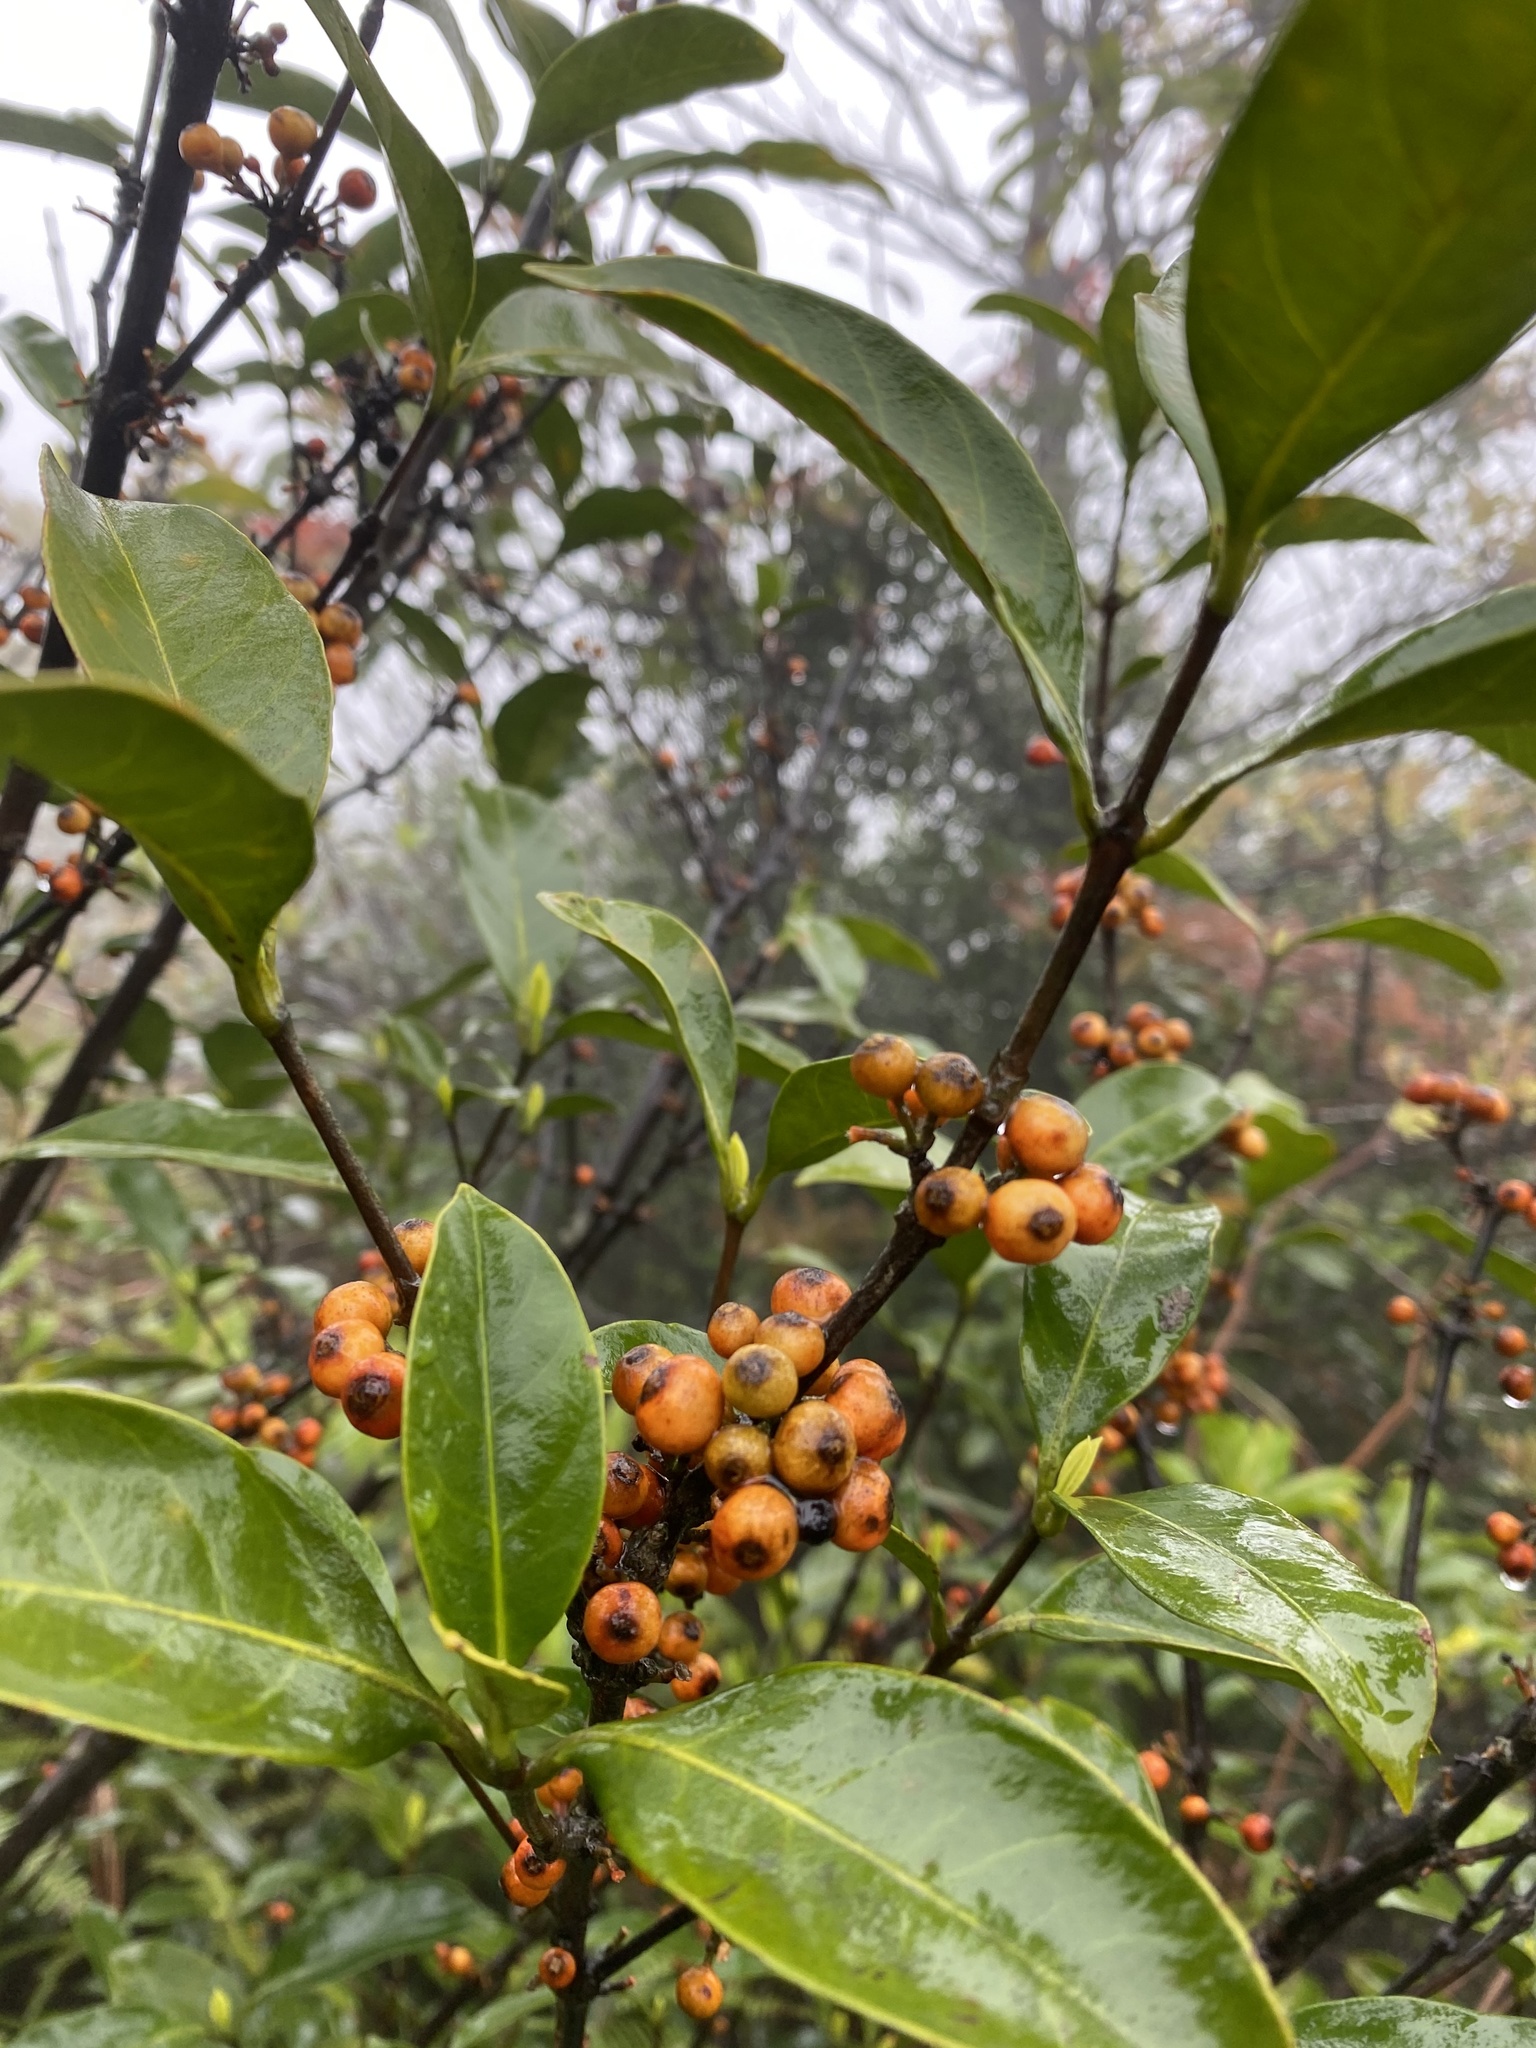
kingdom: Plantae
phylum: Tracheophyta
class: Magnoliopsida
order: Gentianales
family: Rubiaceae
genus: Diplospora
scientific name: Diplospora dubia
